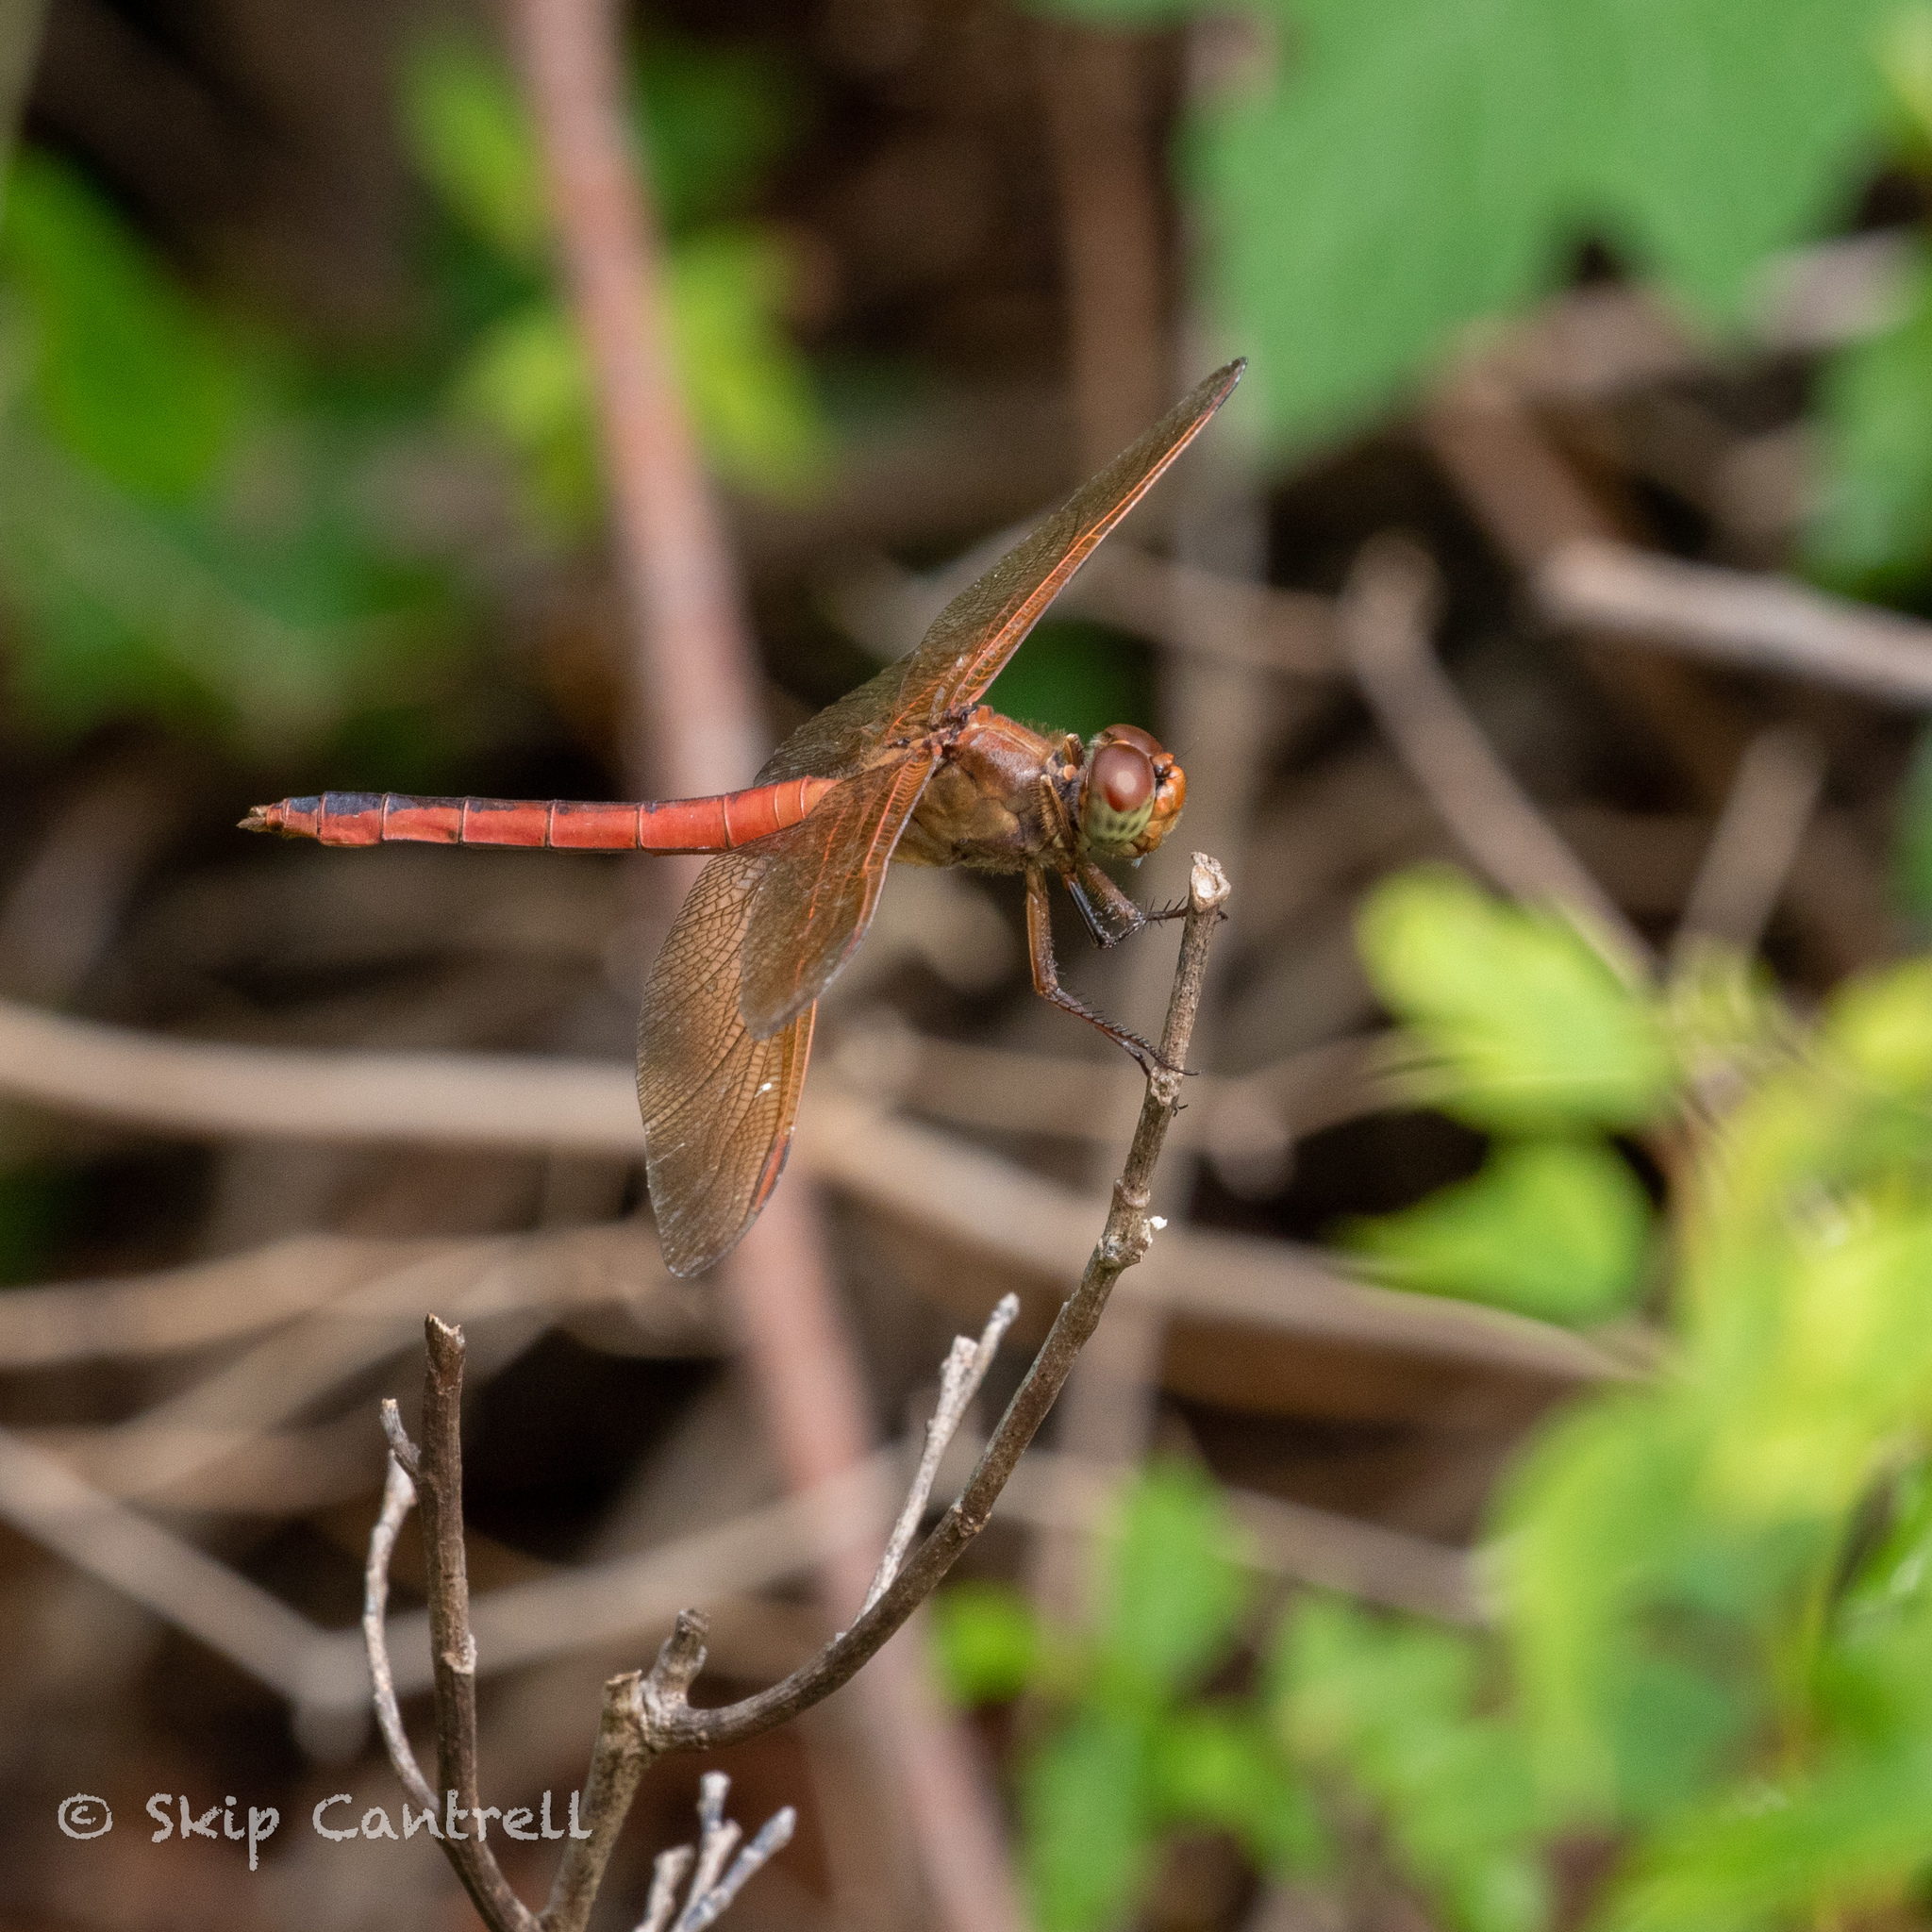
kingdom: Animalia
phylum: Arthropoda
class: Insecta
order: Odonata
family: Libellulidae
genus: Libellula
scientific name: Libellula needhami
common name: Needham's skimmer
